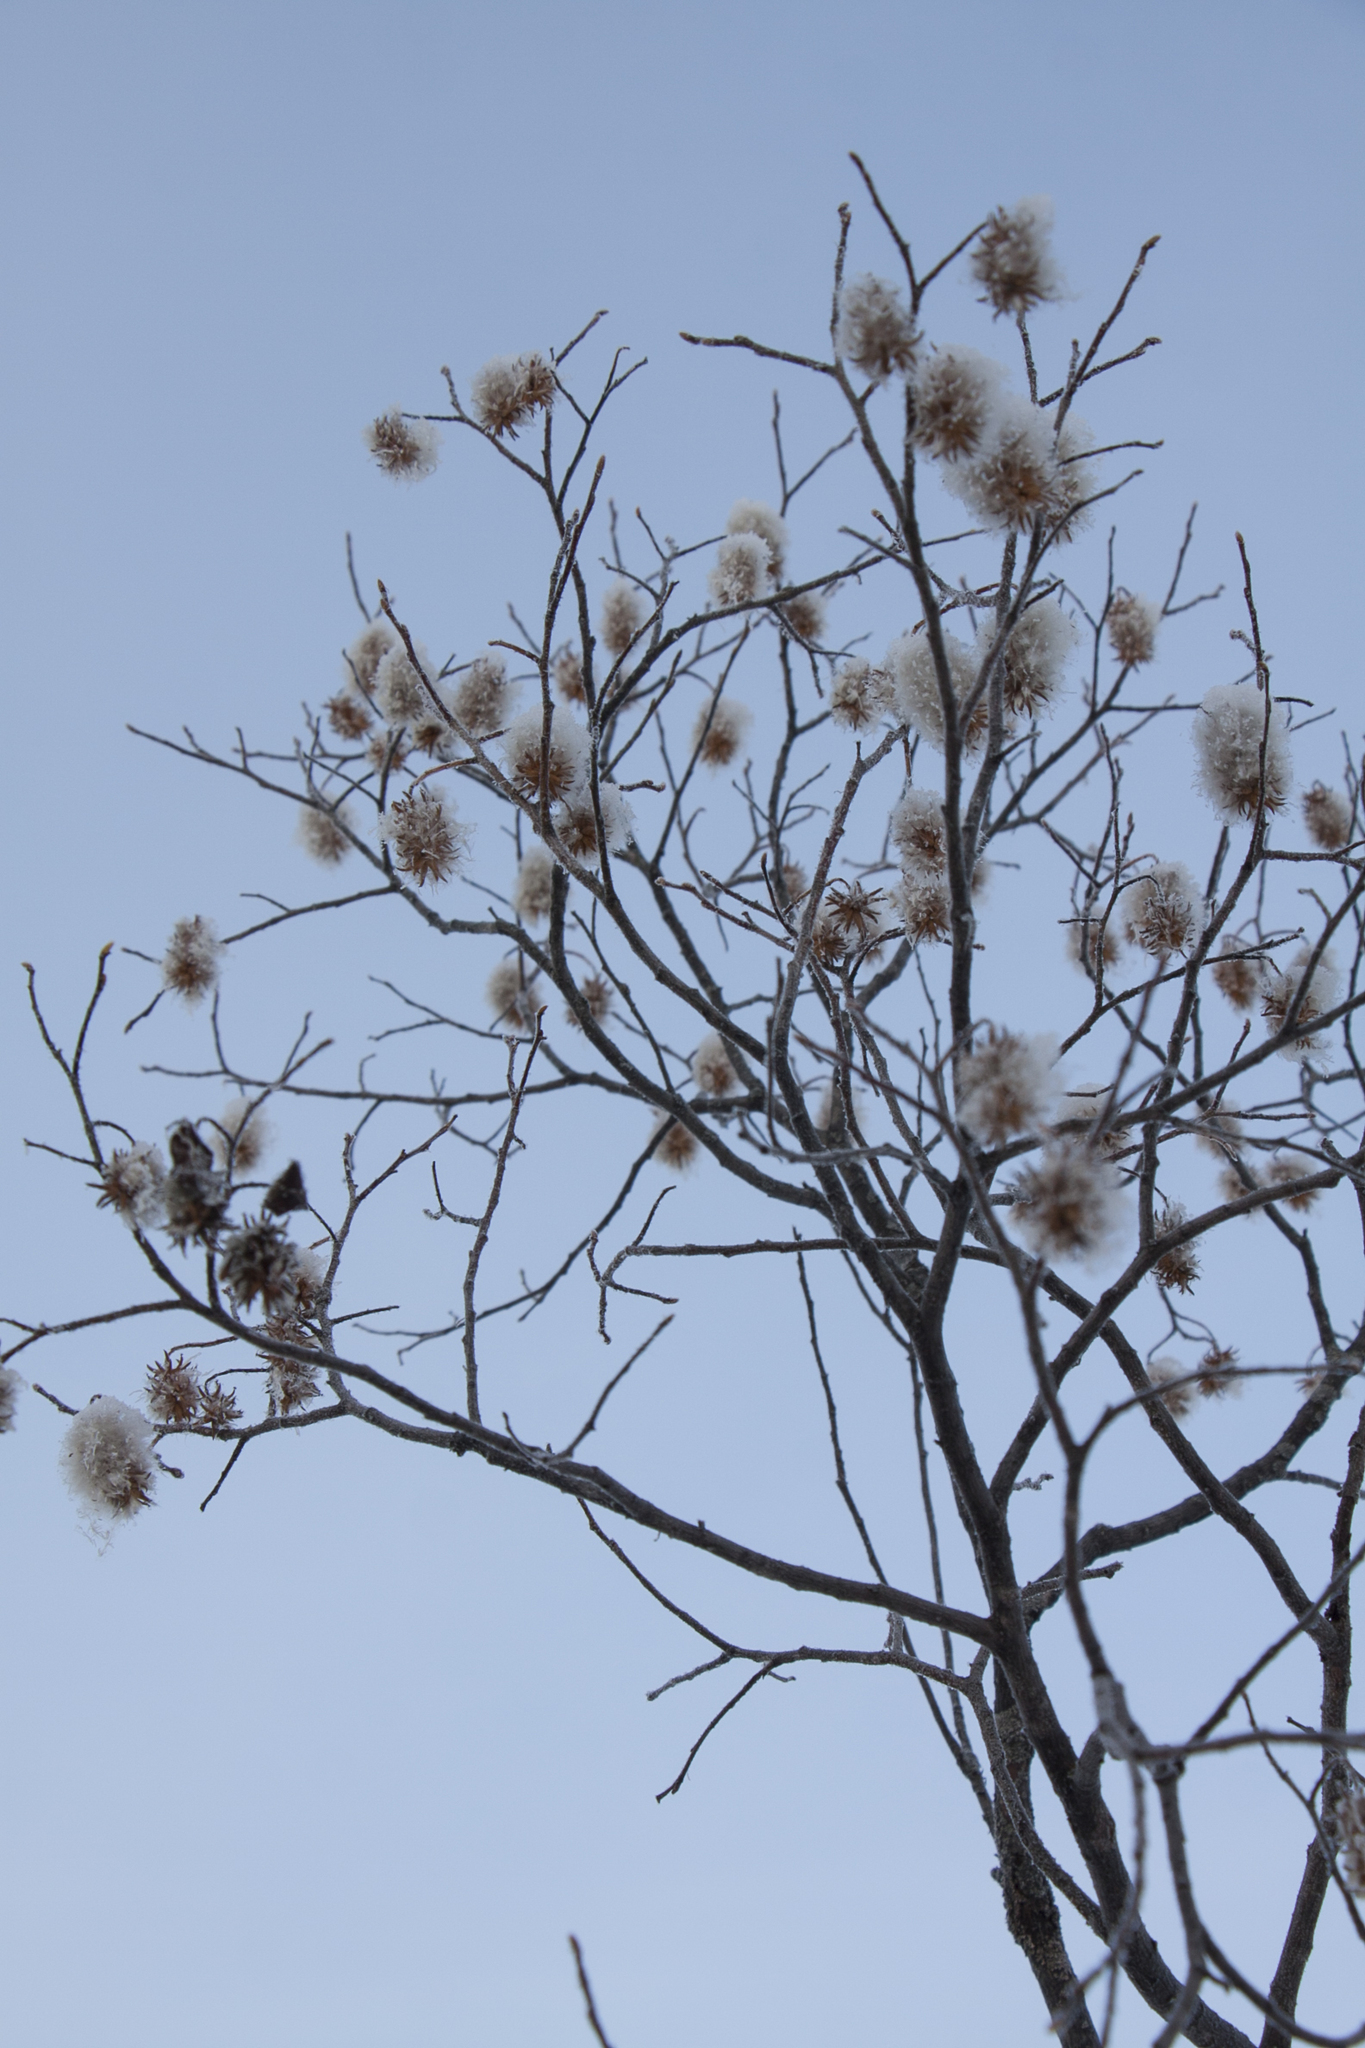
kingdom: Plantae
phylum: Tracheophyta
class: Magnoliopsida
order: Malpighiales
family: Salicaceae
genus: Salix
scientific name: Salix pentandra
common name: Bay willow
